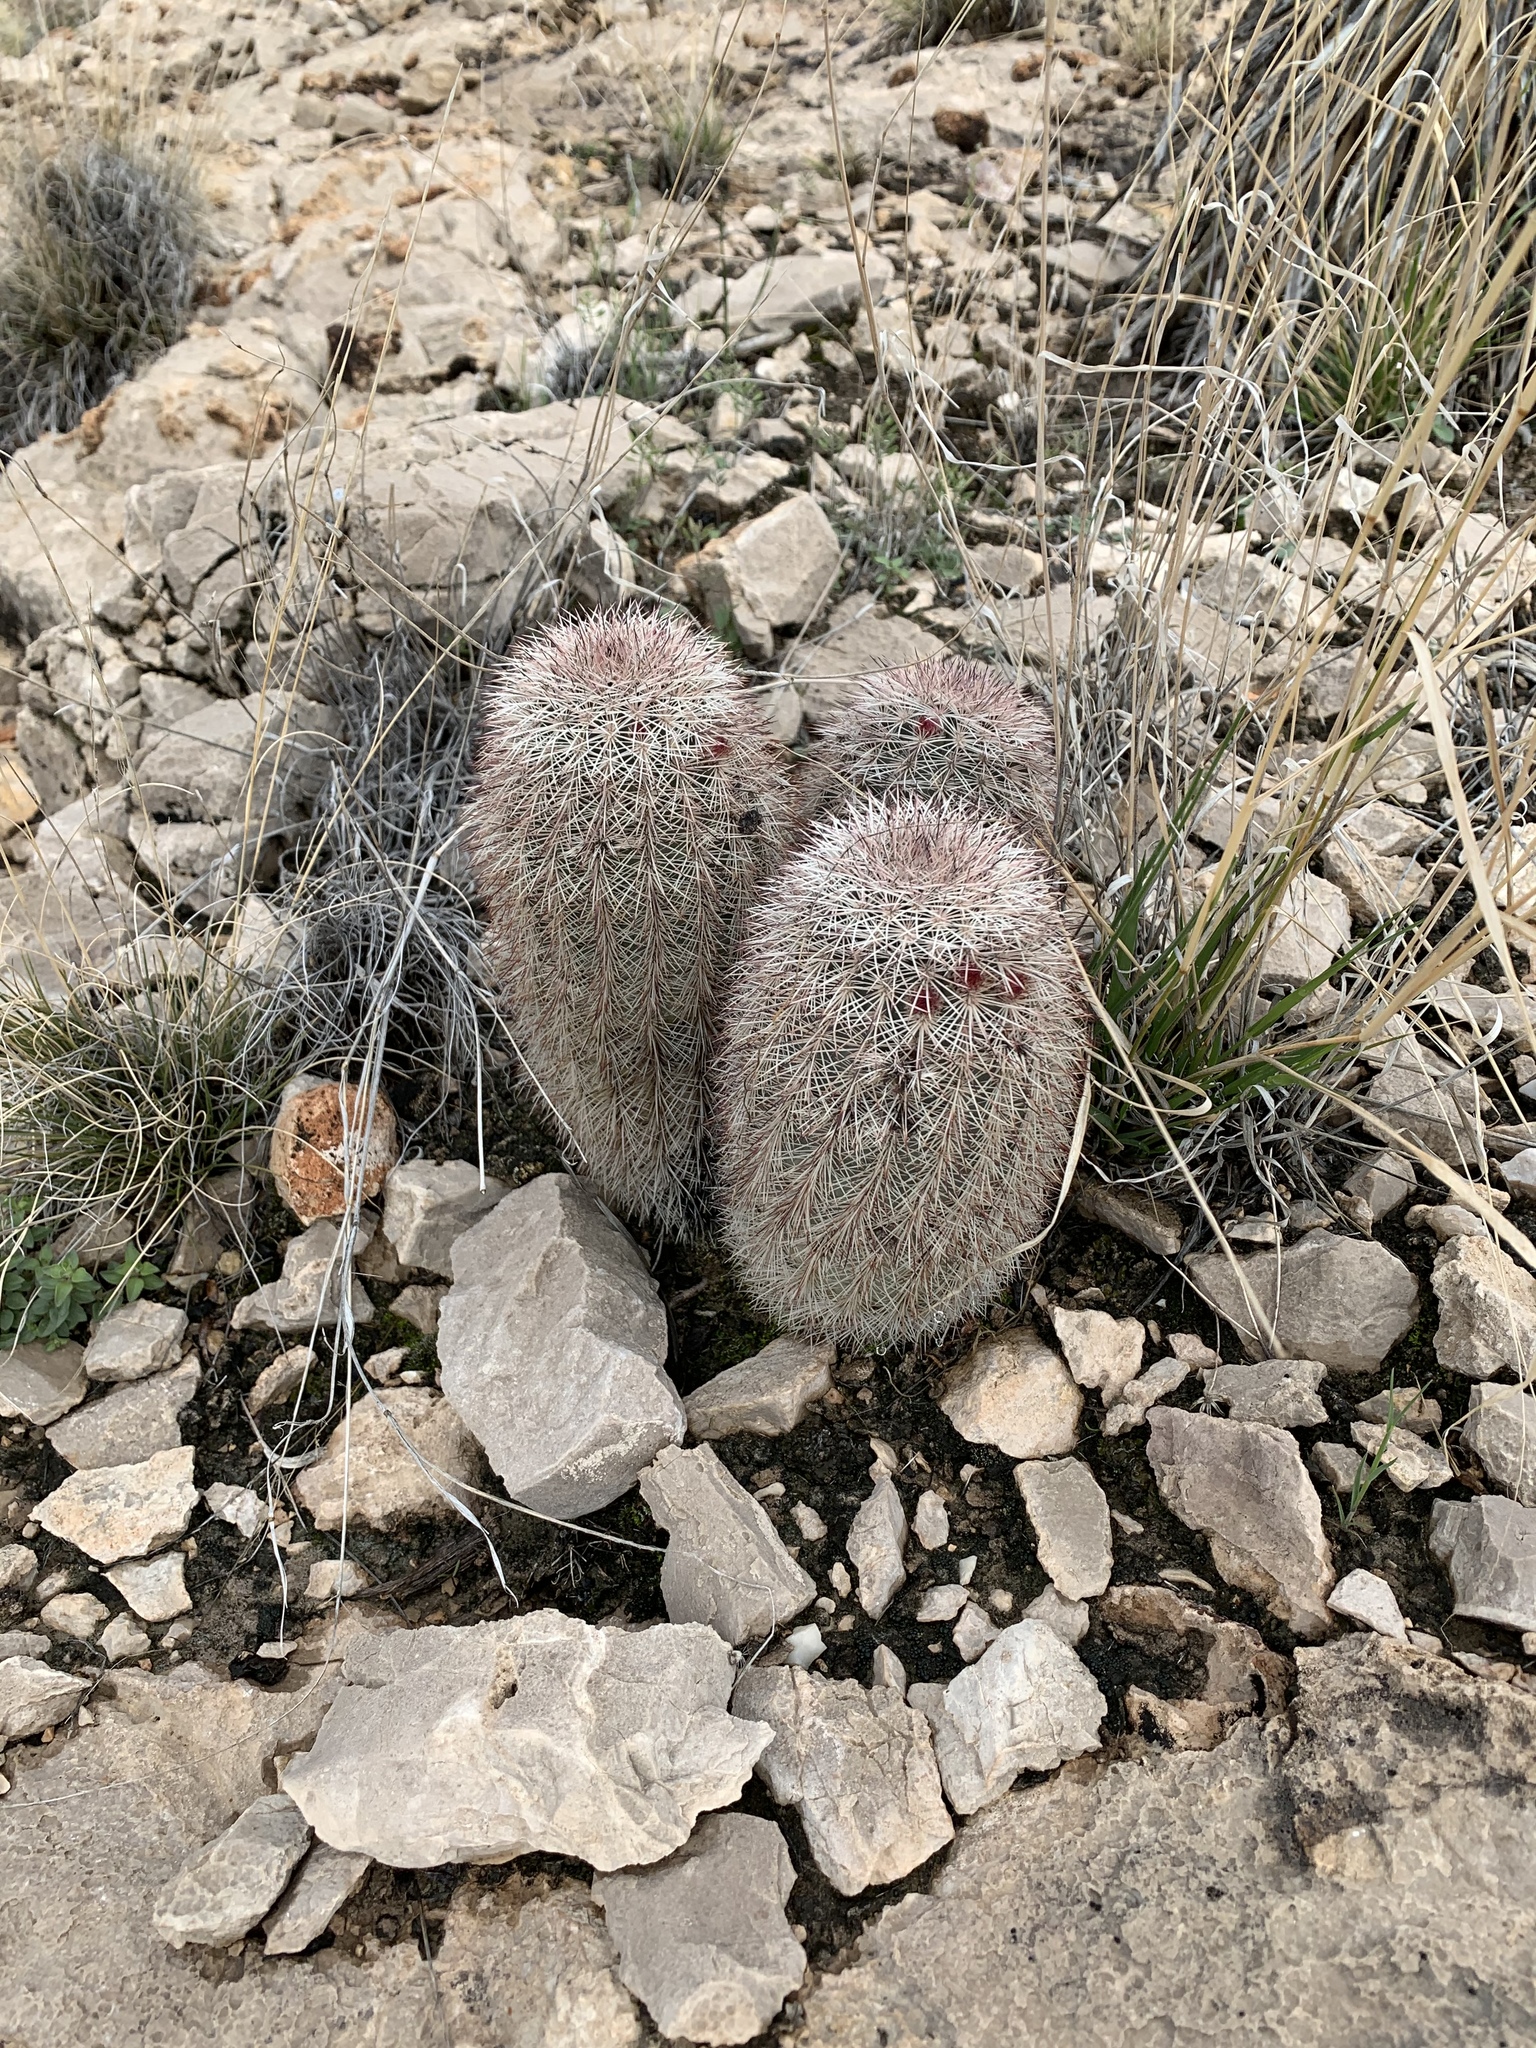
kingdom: Plantae
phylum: Tracheophyta
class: Magnoliopsida
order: Caryophyllales
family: Cactaceae
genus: Echinocereus
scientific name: Echinocereus dasyacanthus
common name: Spiny hedgehog cactus
